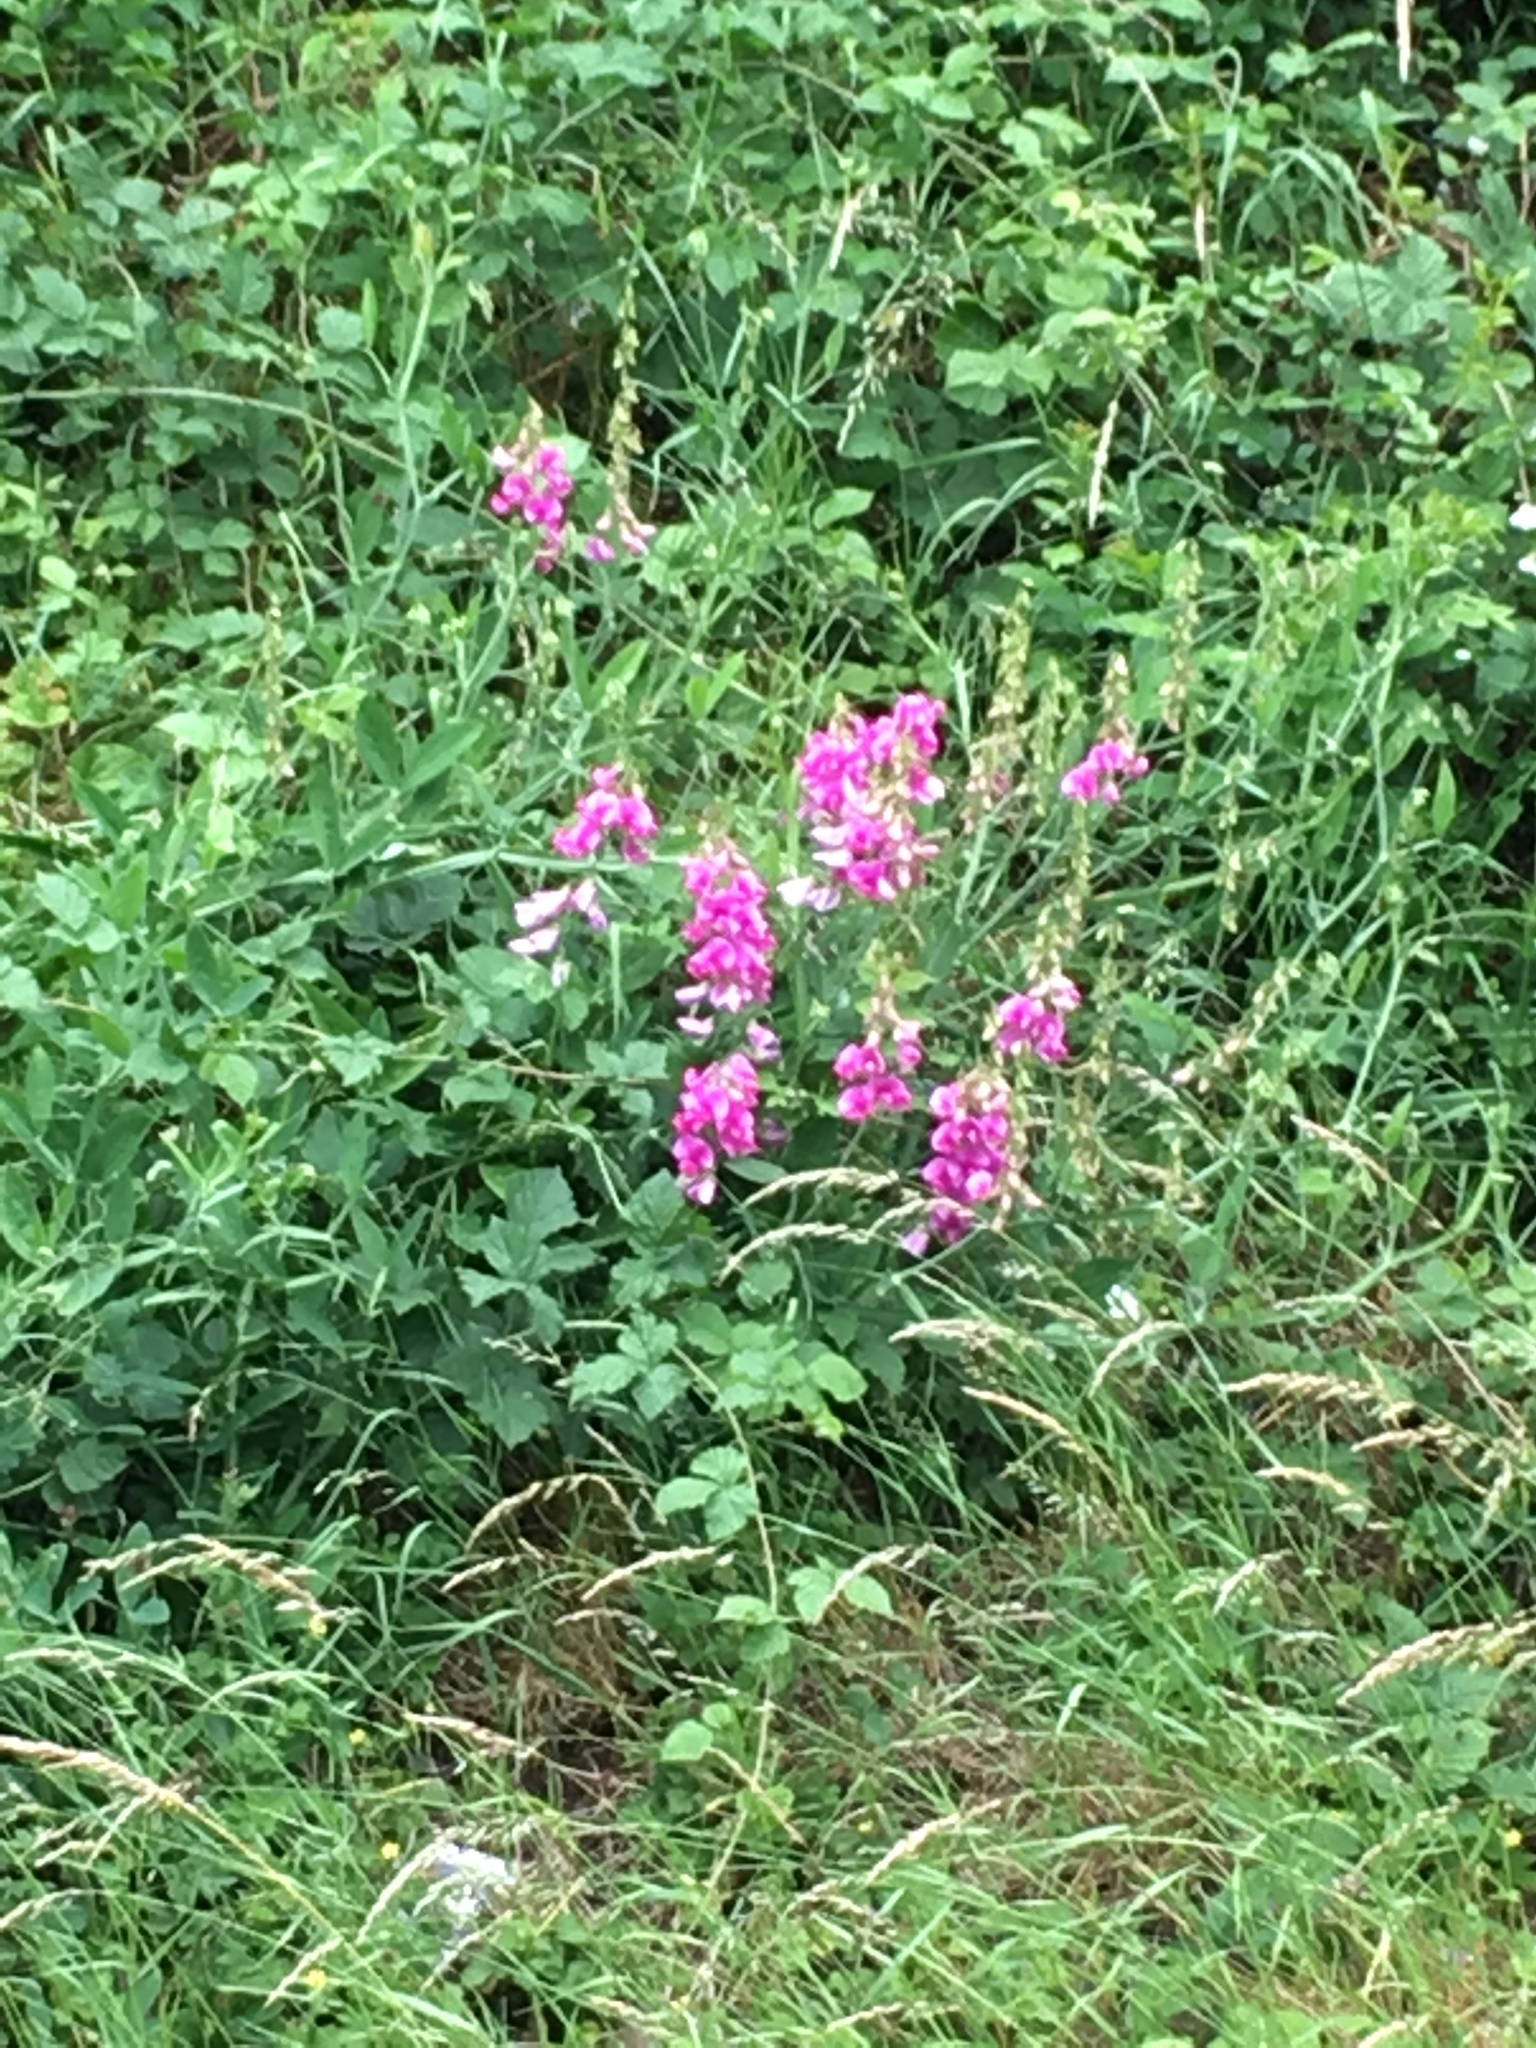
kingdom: Plantae
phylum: Tracheophyta
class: Magnoliopsida
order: Fabales
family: Fabaceae
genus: Lathyrus
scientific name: Lathyrus latifolius
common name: Perennial pea
